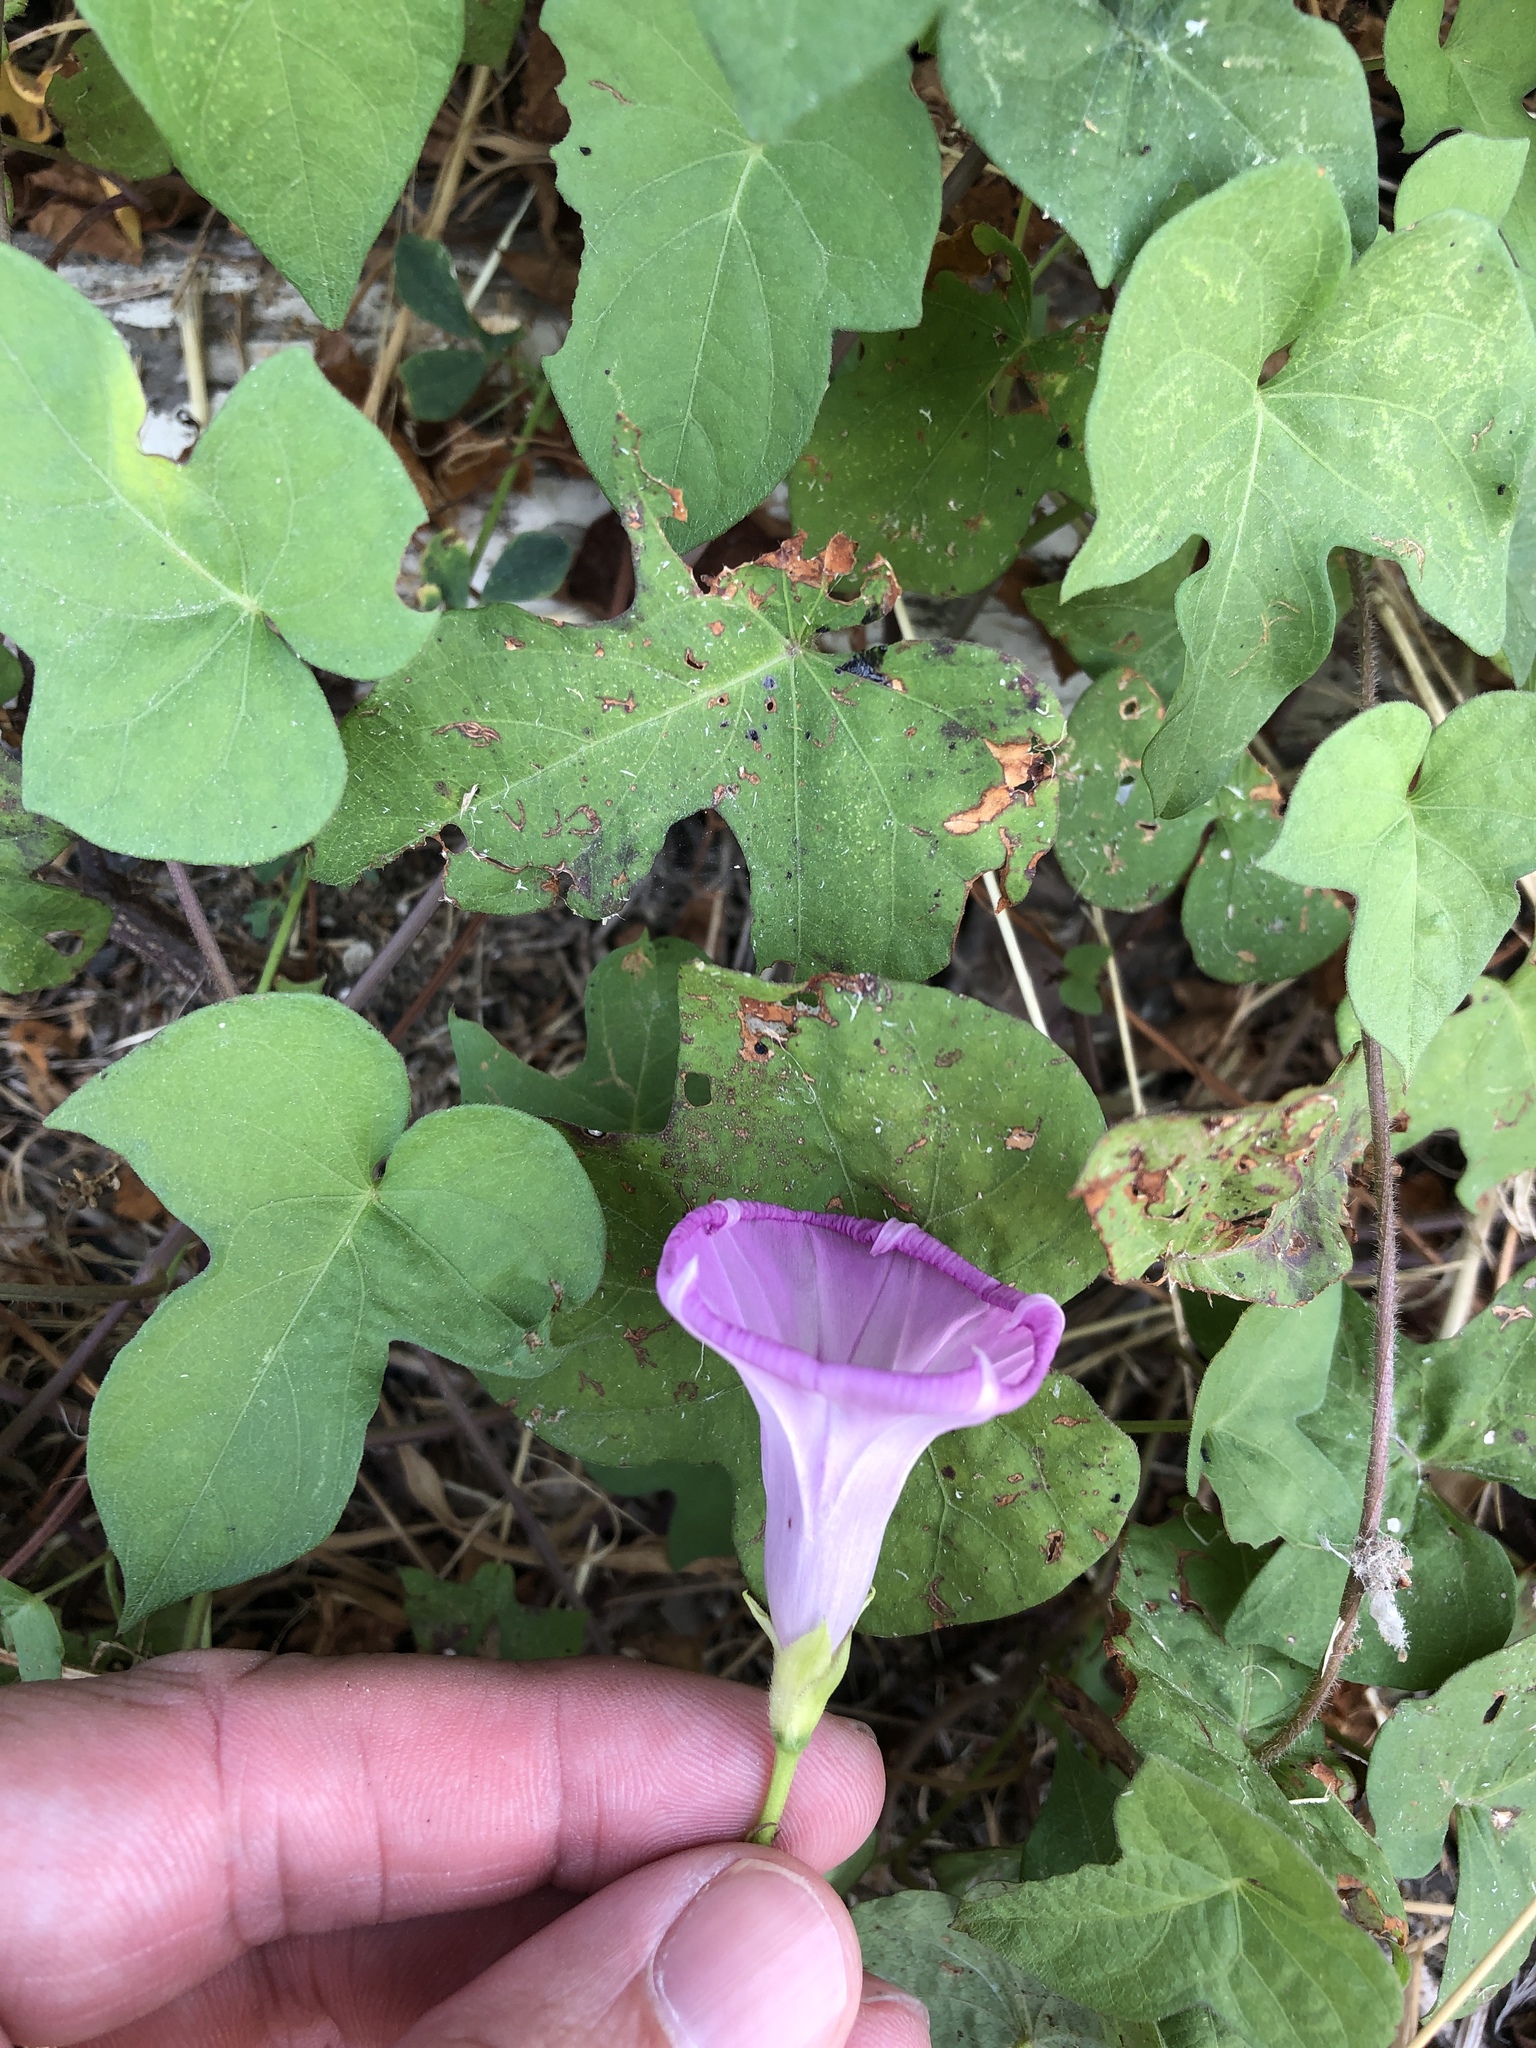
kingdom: Plantae
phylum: Tracheophyta
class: Magnoliopsida
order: Solanales
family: Convolvulaceae
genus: Ipomoea
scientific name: Ipomoea cordatotriloba
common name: Cotton morning glory
